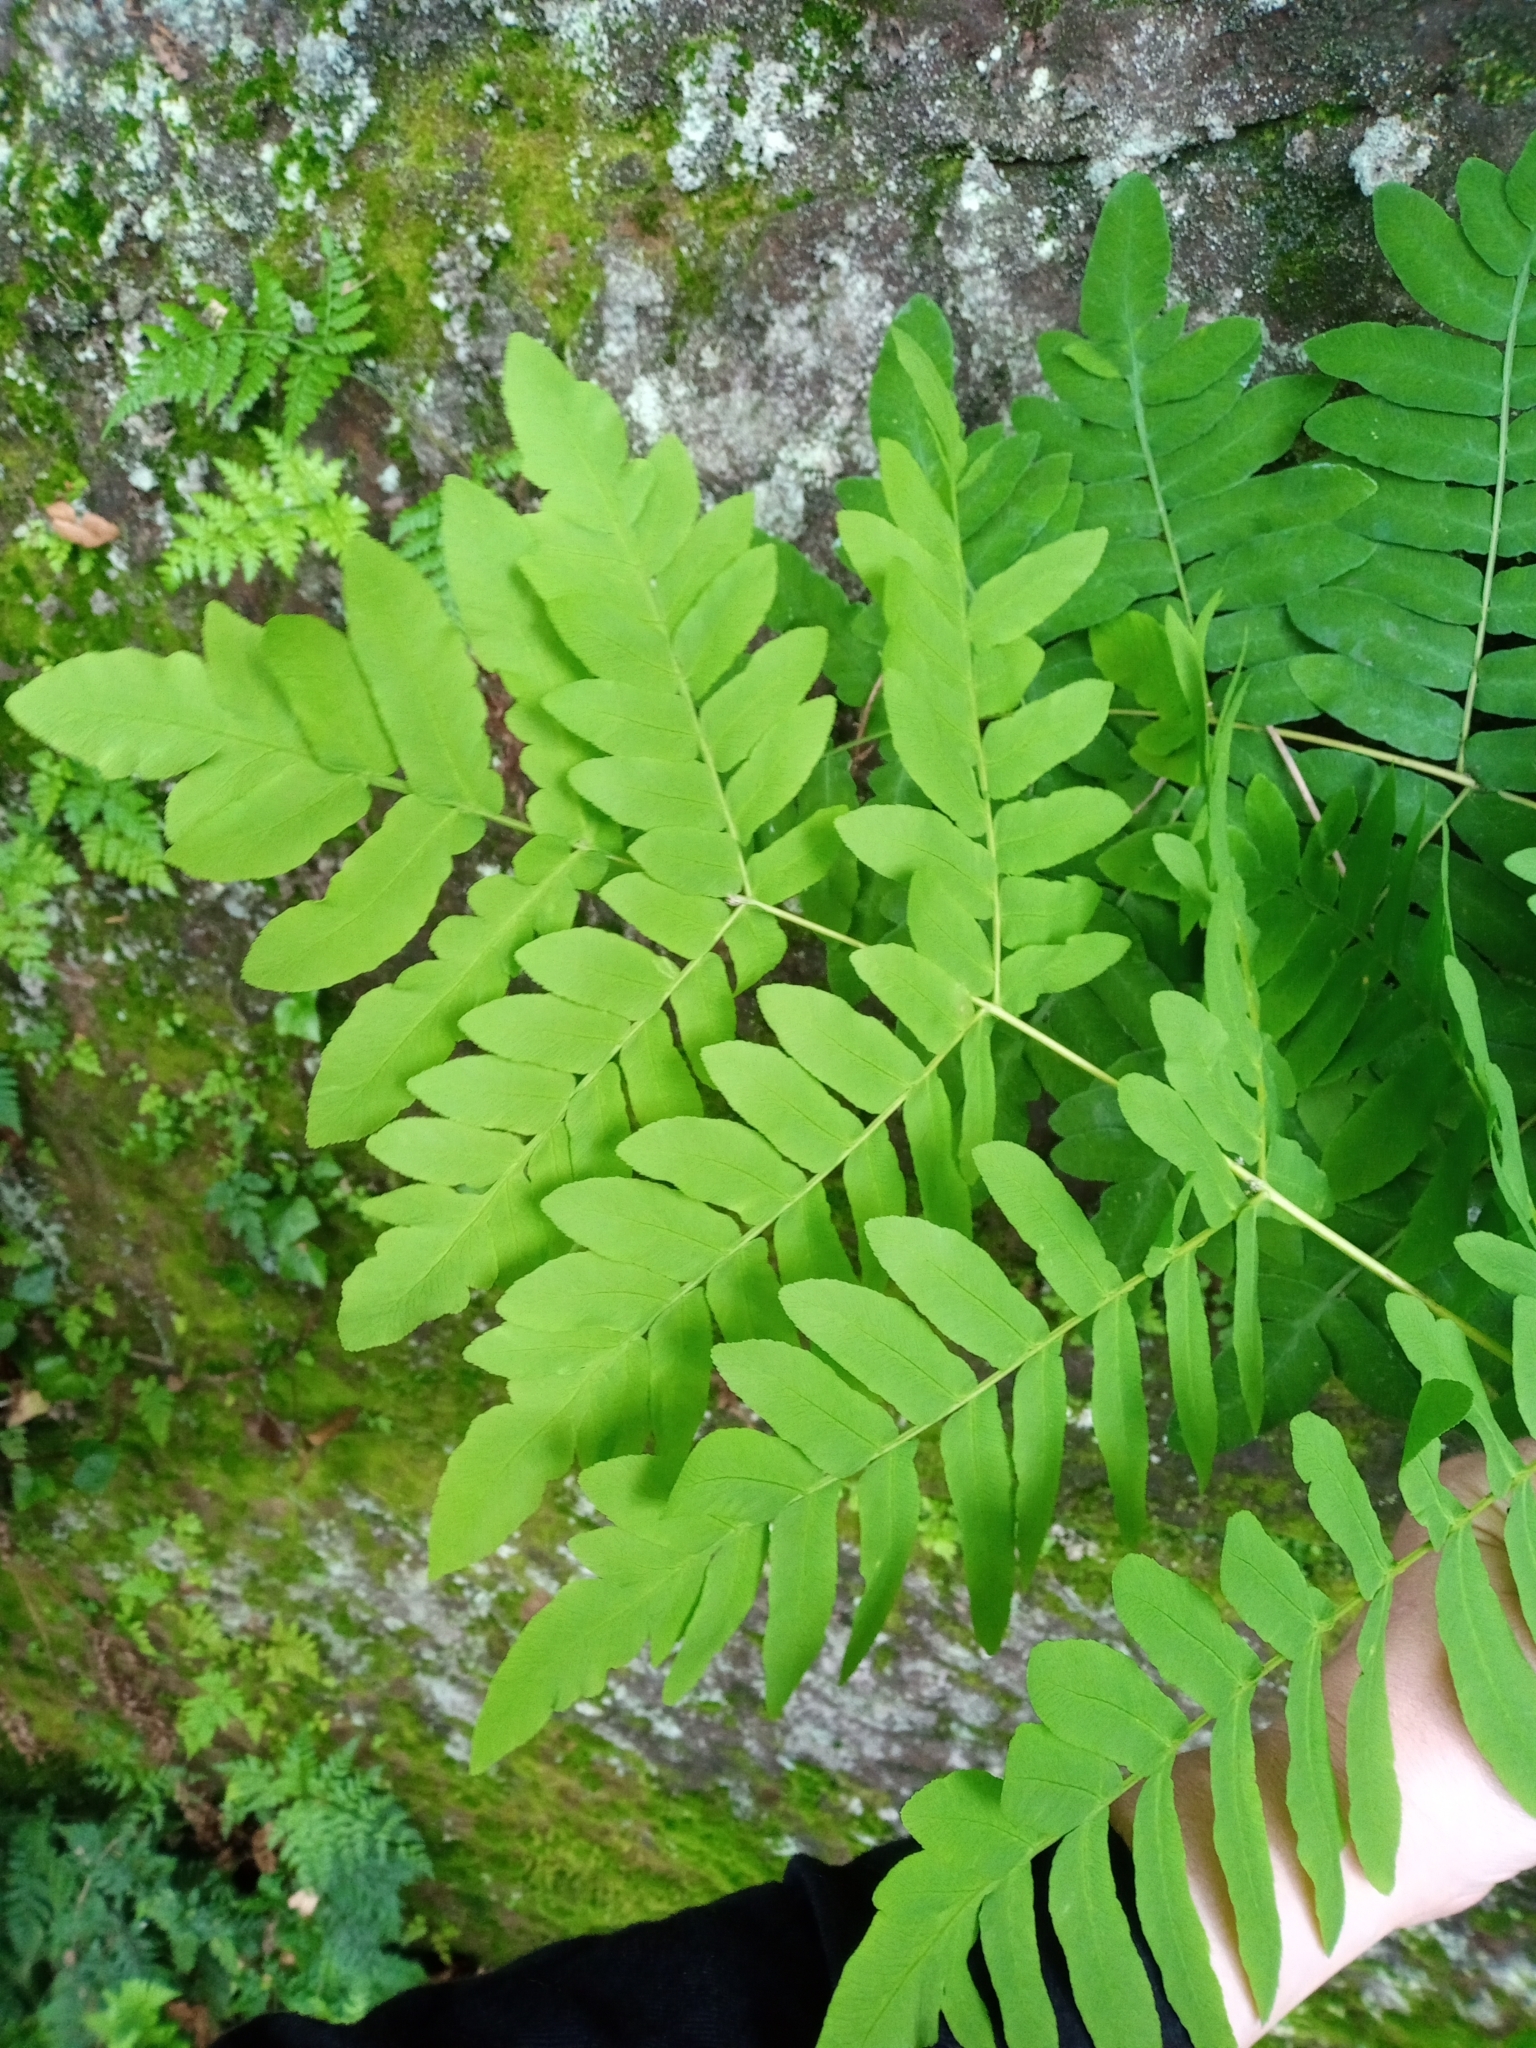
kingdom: Plantae
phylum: Tracheophyta
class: Polypodiopsida
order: Osmundales
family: Osmundaceae
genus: Osmunda
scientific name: Osmunda regalis
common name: Royal fern
